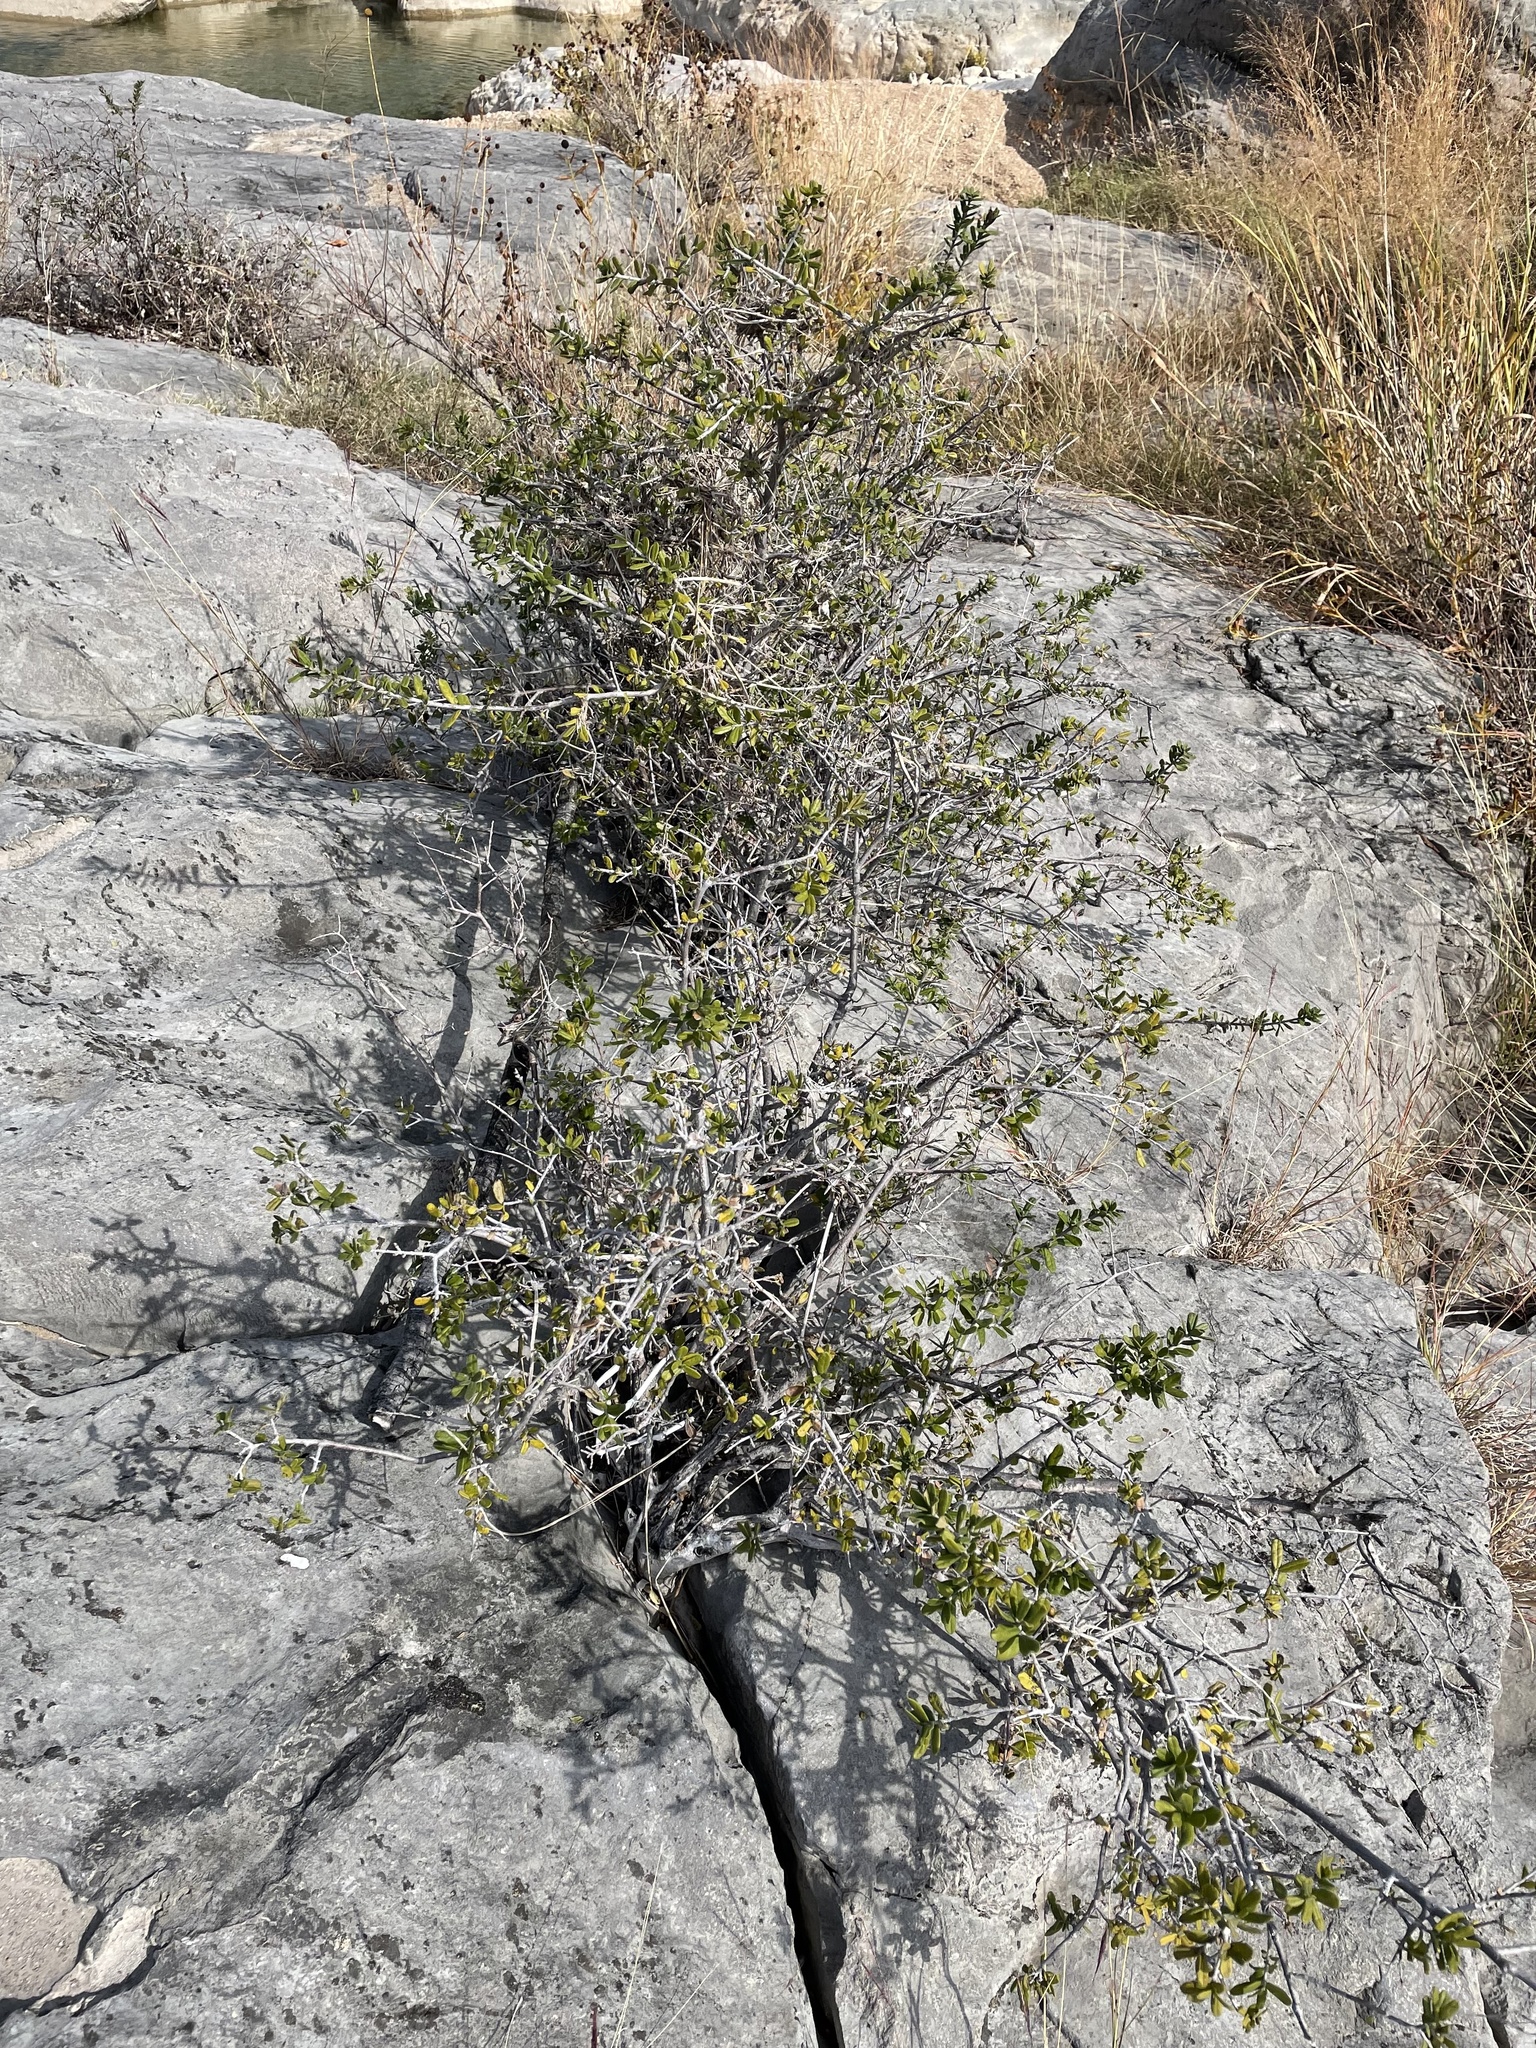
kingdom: Plantae
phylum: Tracheophyta
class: Magnoliopsida
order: Ericales
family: Ebenaceae
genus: Diospyros
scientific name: Diospyros texana
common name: Texas persimmon
